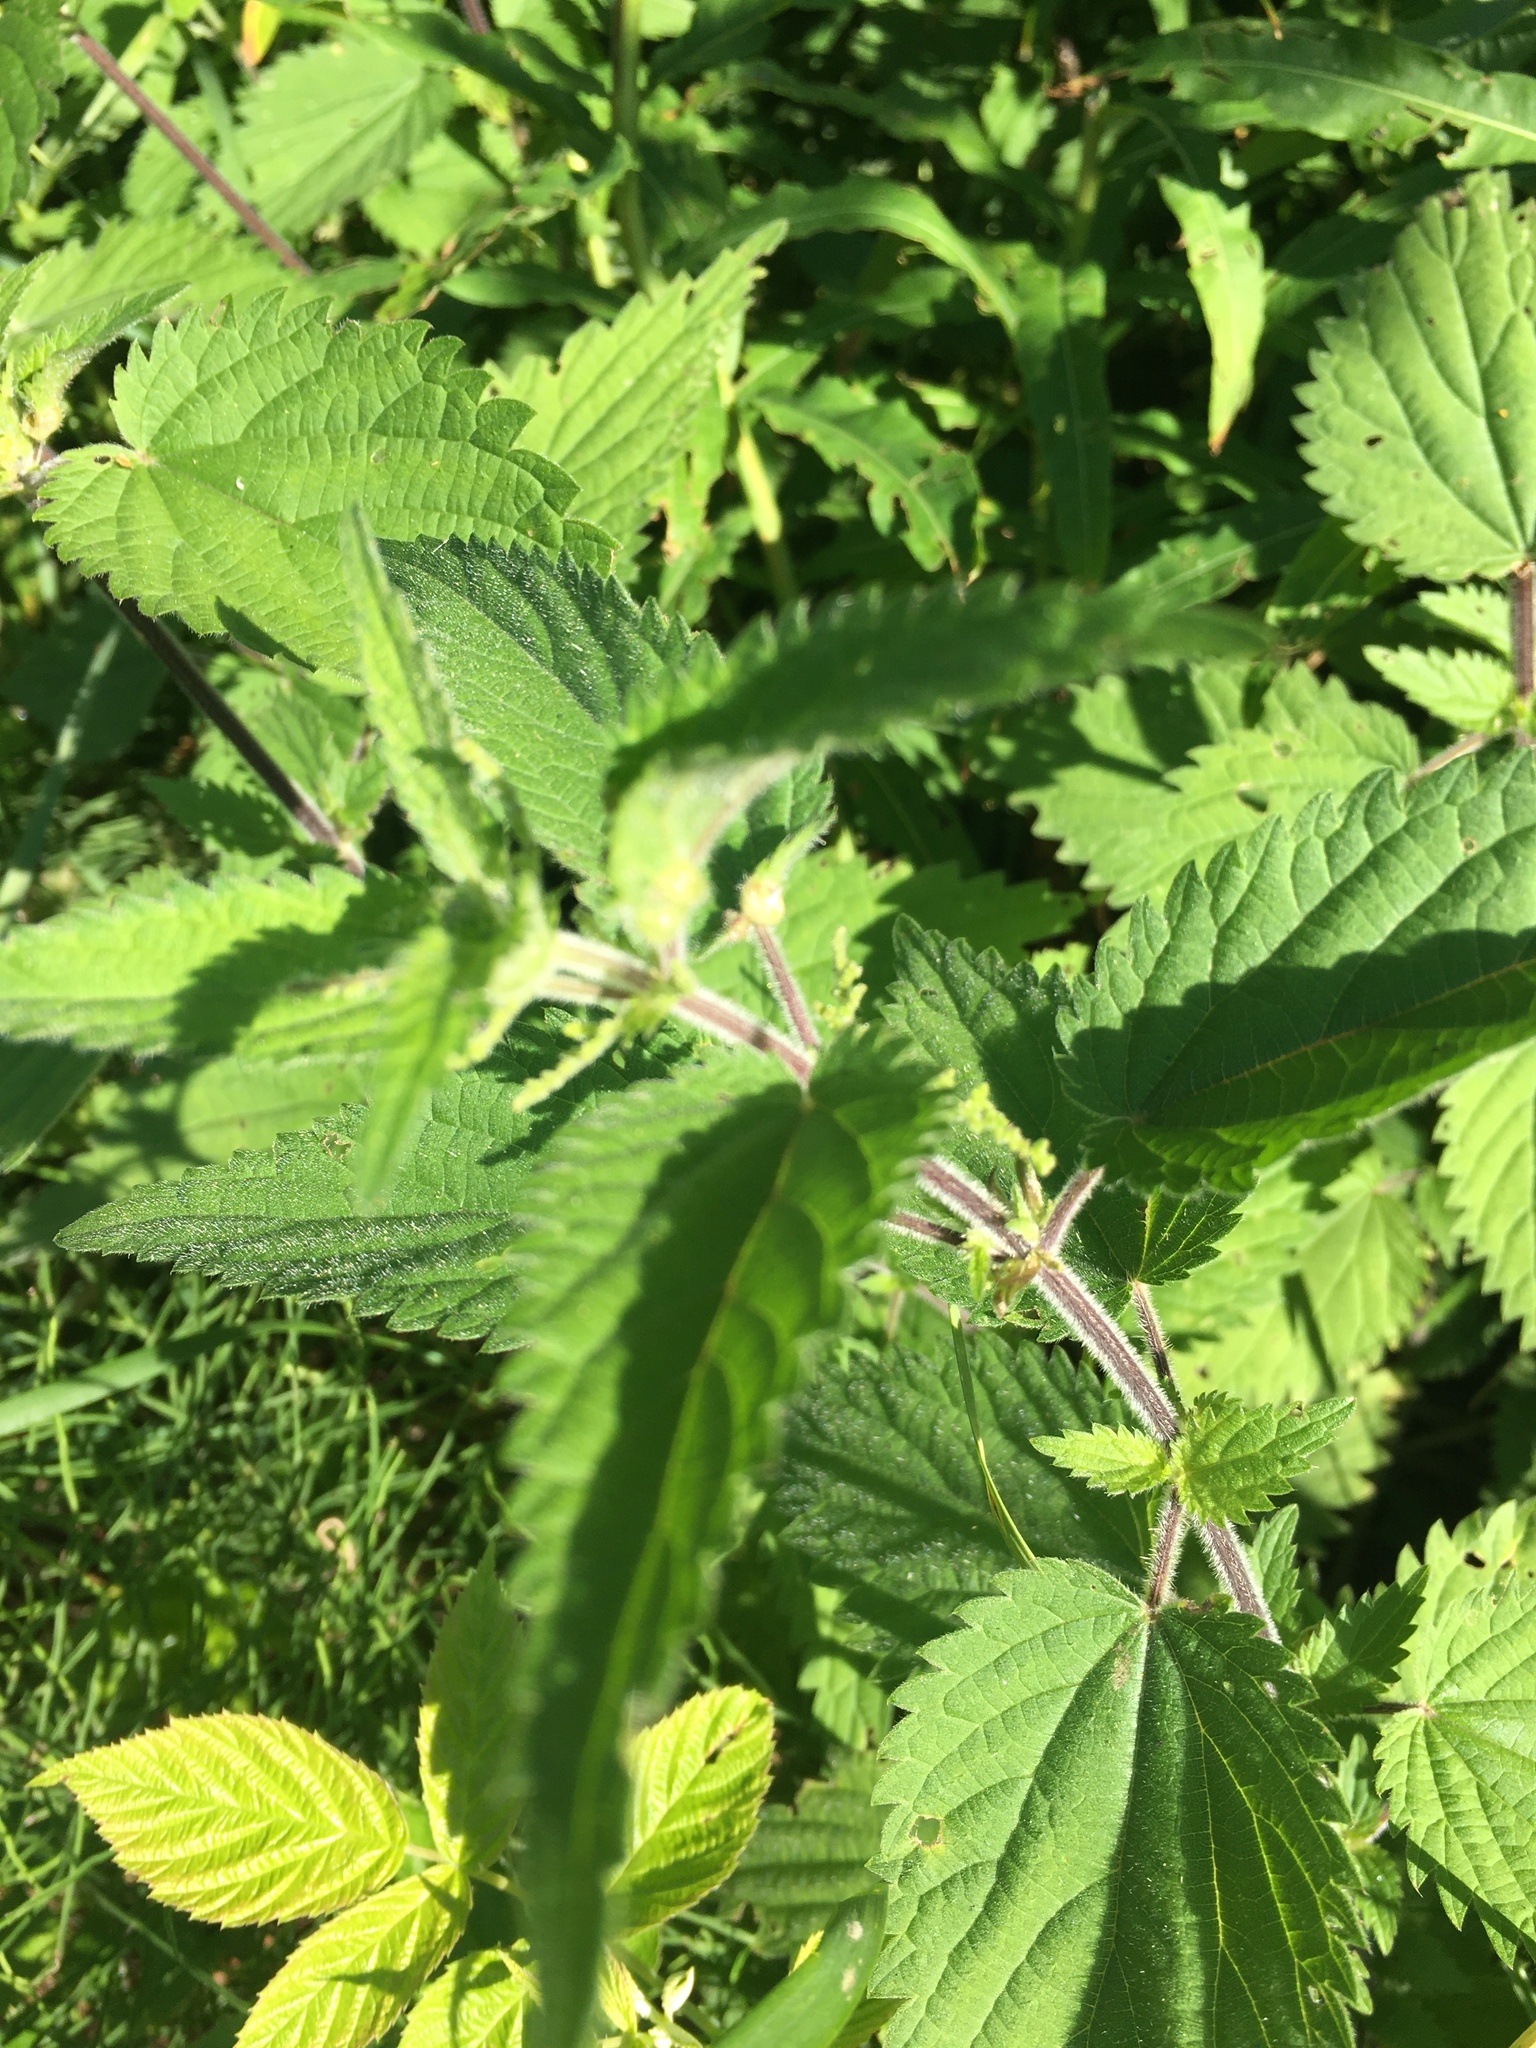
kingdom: Plantae
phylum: Tracheophyta
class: Magnoliopsida
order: Rosales
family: Urticaceae
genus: Urtica
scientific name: Urtica dioica
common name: Common nettle
